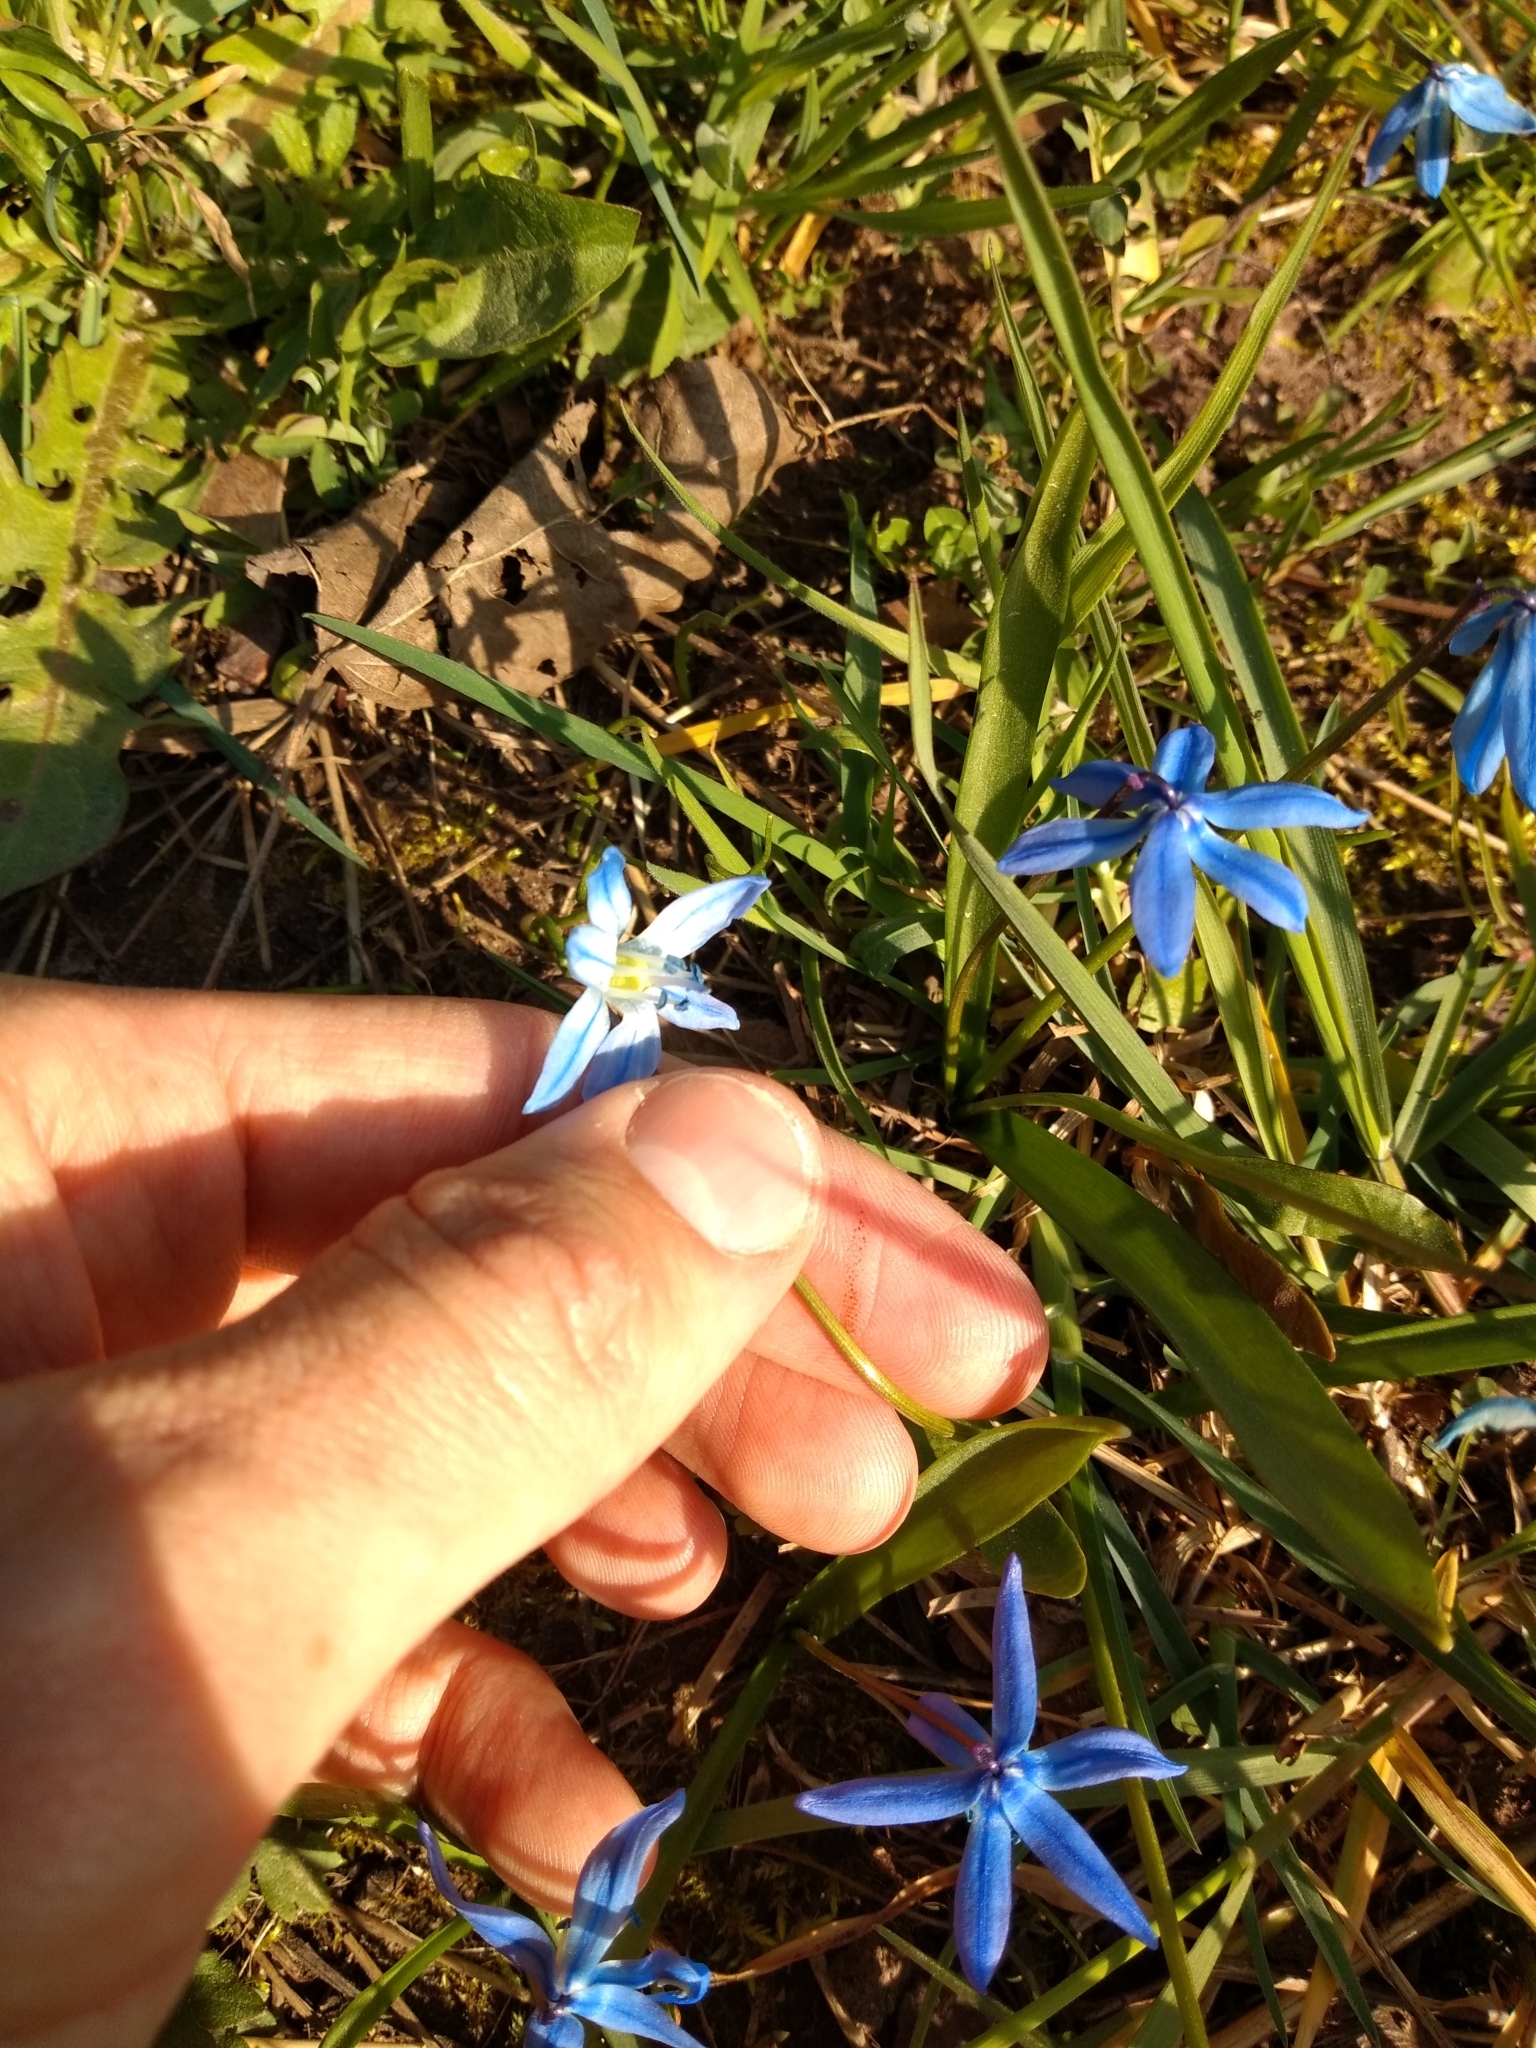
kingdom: Plantae
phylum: Tracheophyta
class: Liliopsida
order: Asparagales
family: Asparagaceae
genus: Scilla
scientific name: Scilla siberica
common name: Siberian squill
